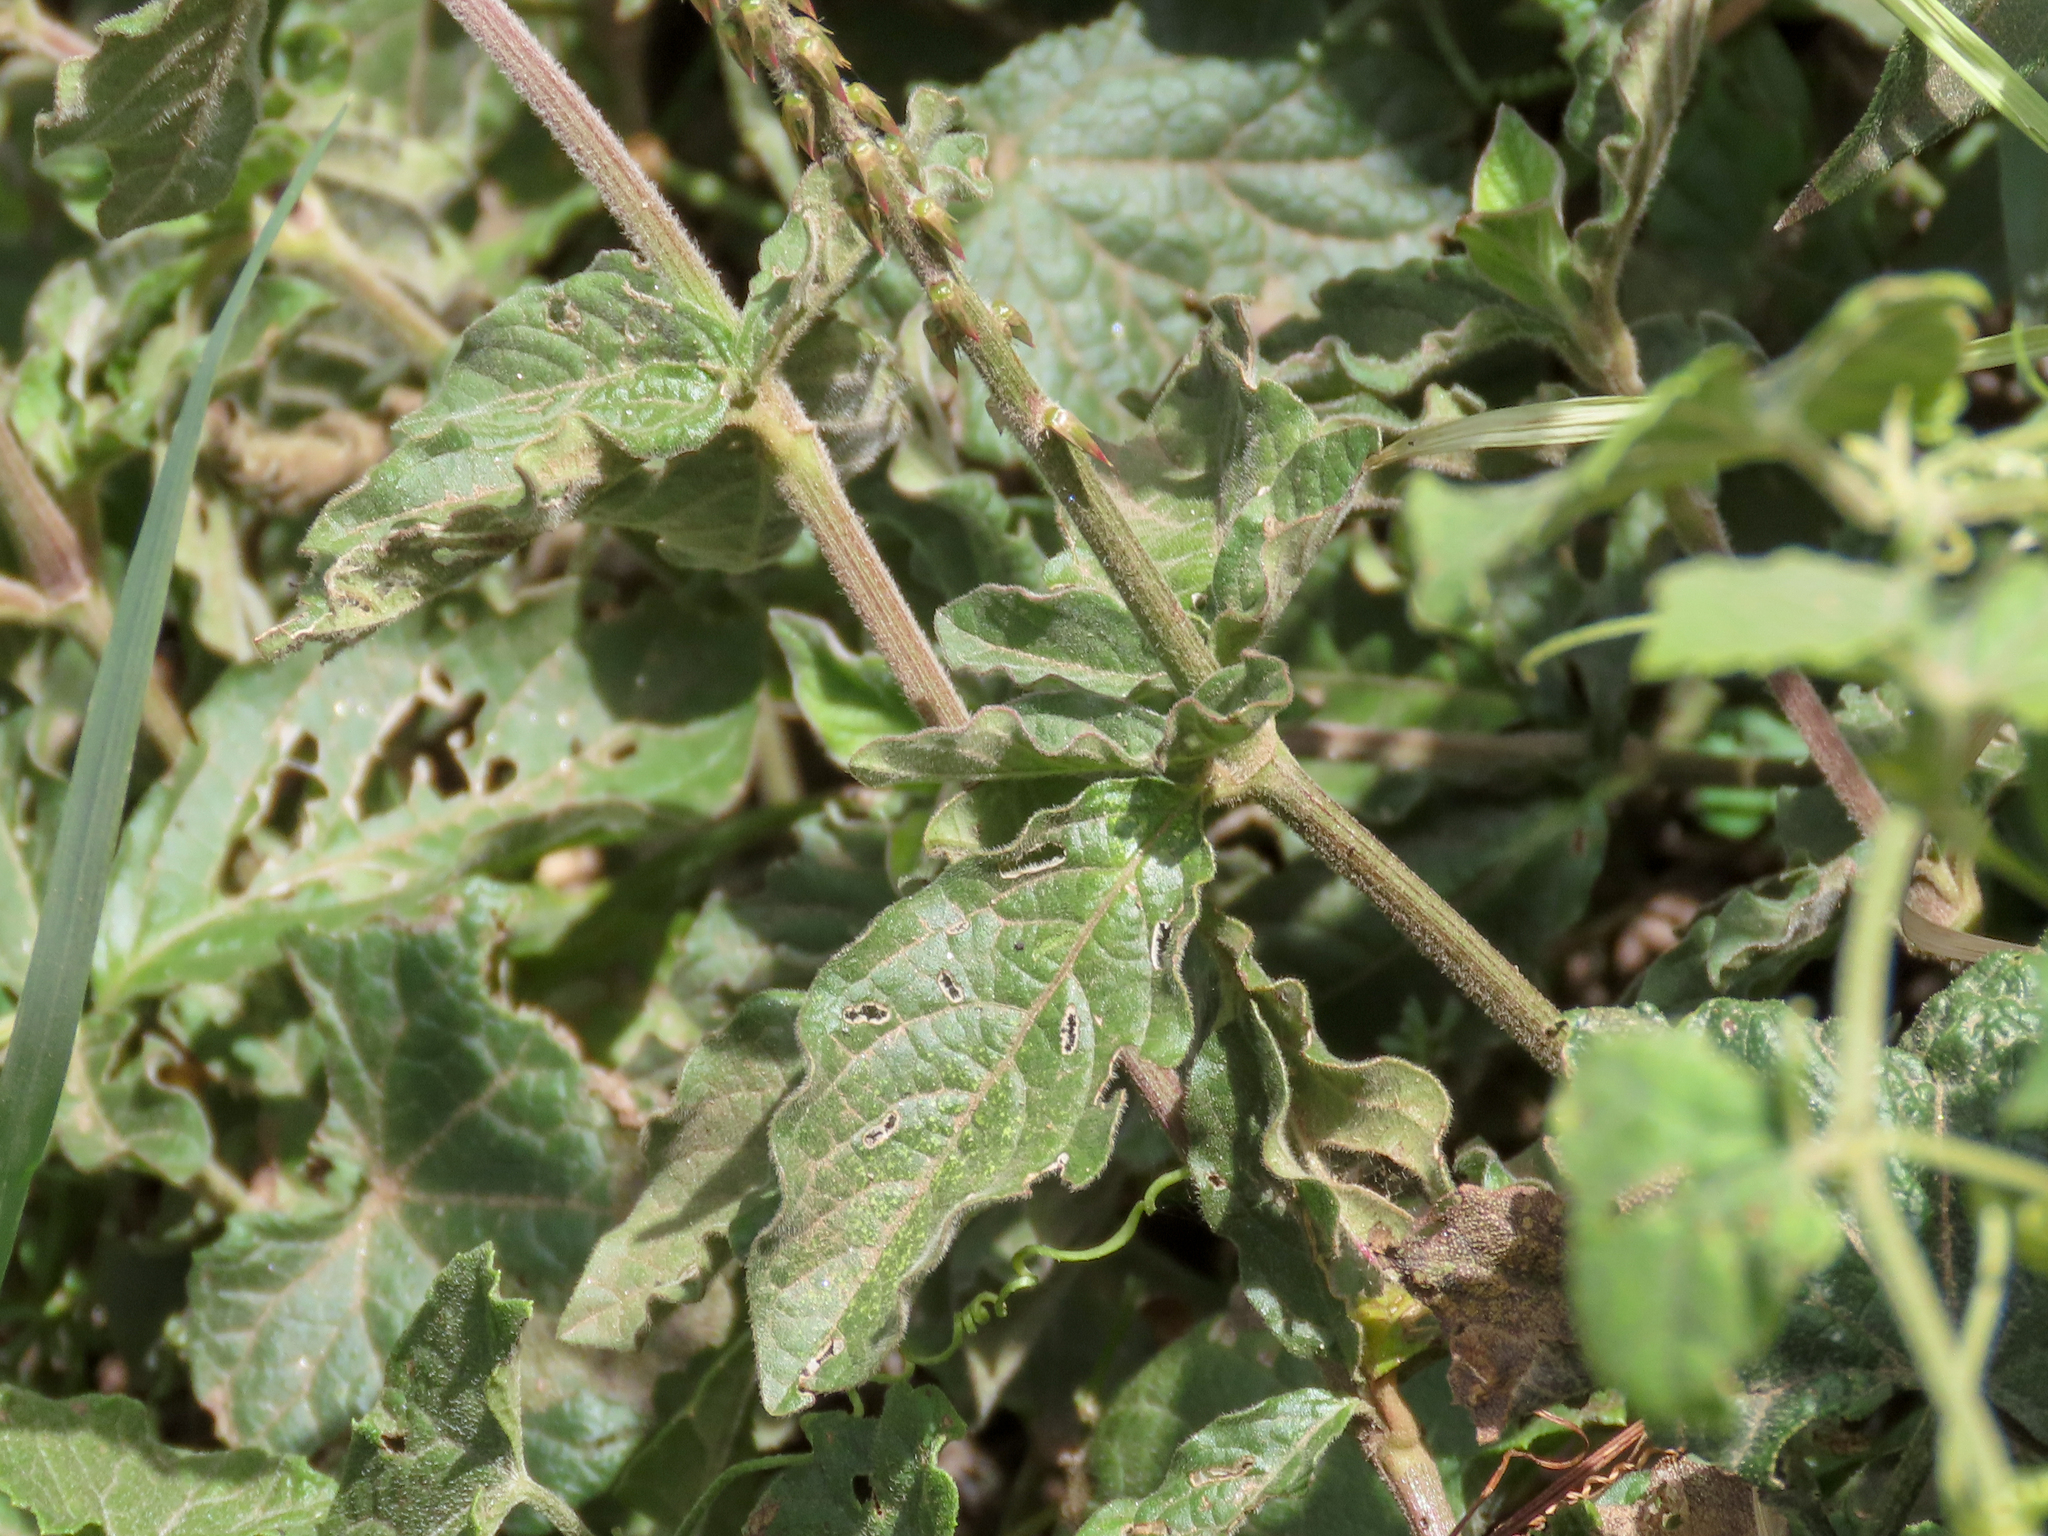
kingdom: Plantae
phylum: Tracheophyta
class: Magnoliopsida
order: Caryophyllales
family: Amaranthaceae
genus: Achyranthes
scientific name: Achyranthes aspera
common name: Devil's horsewhip
